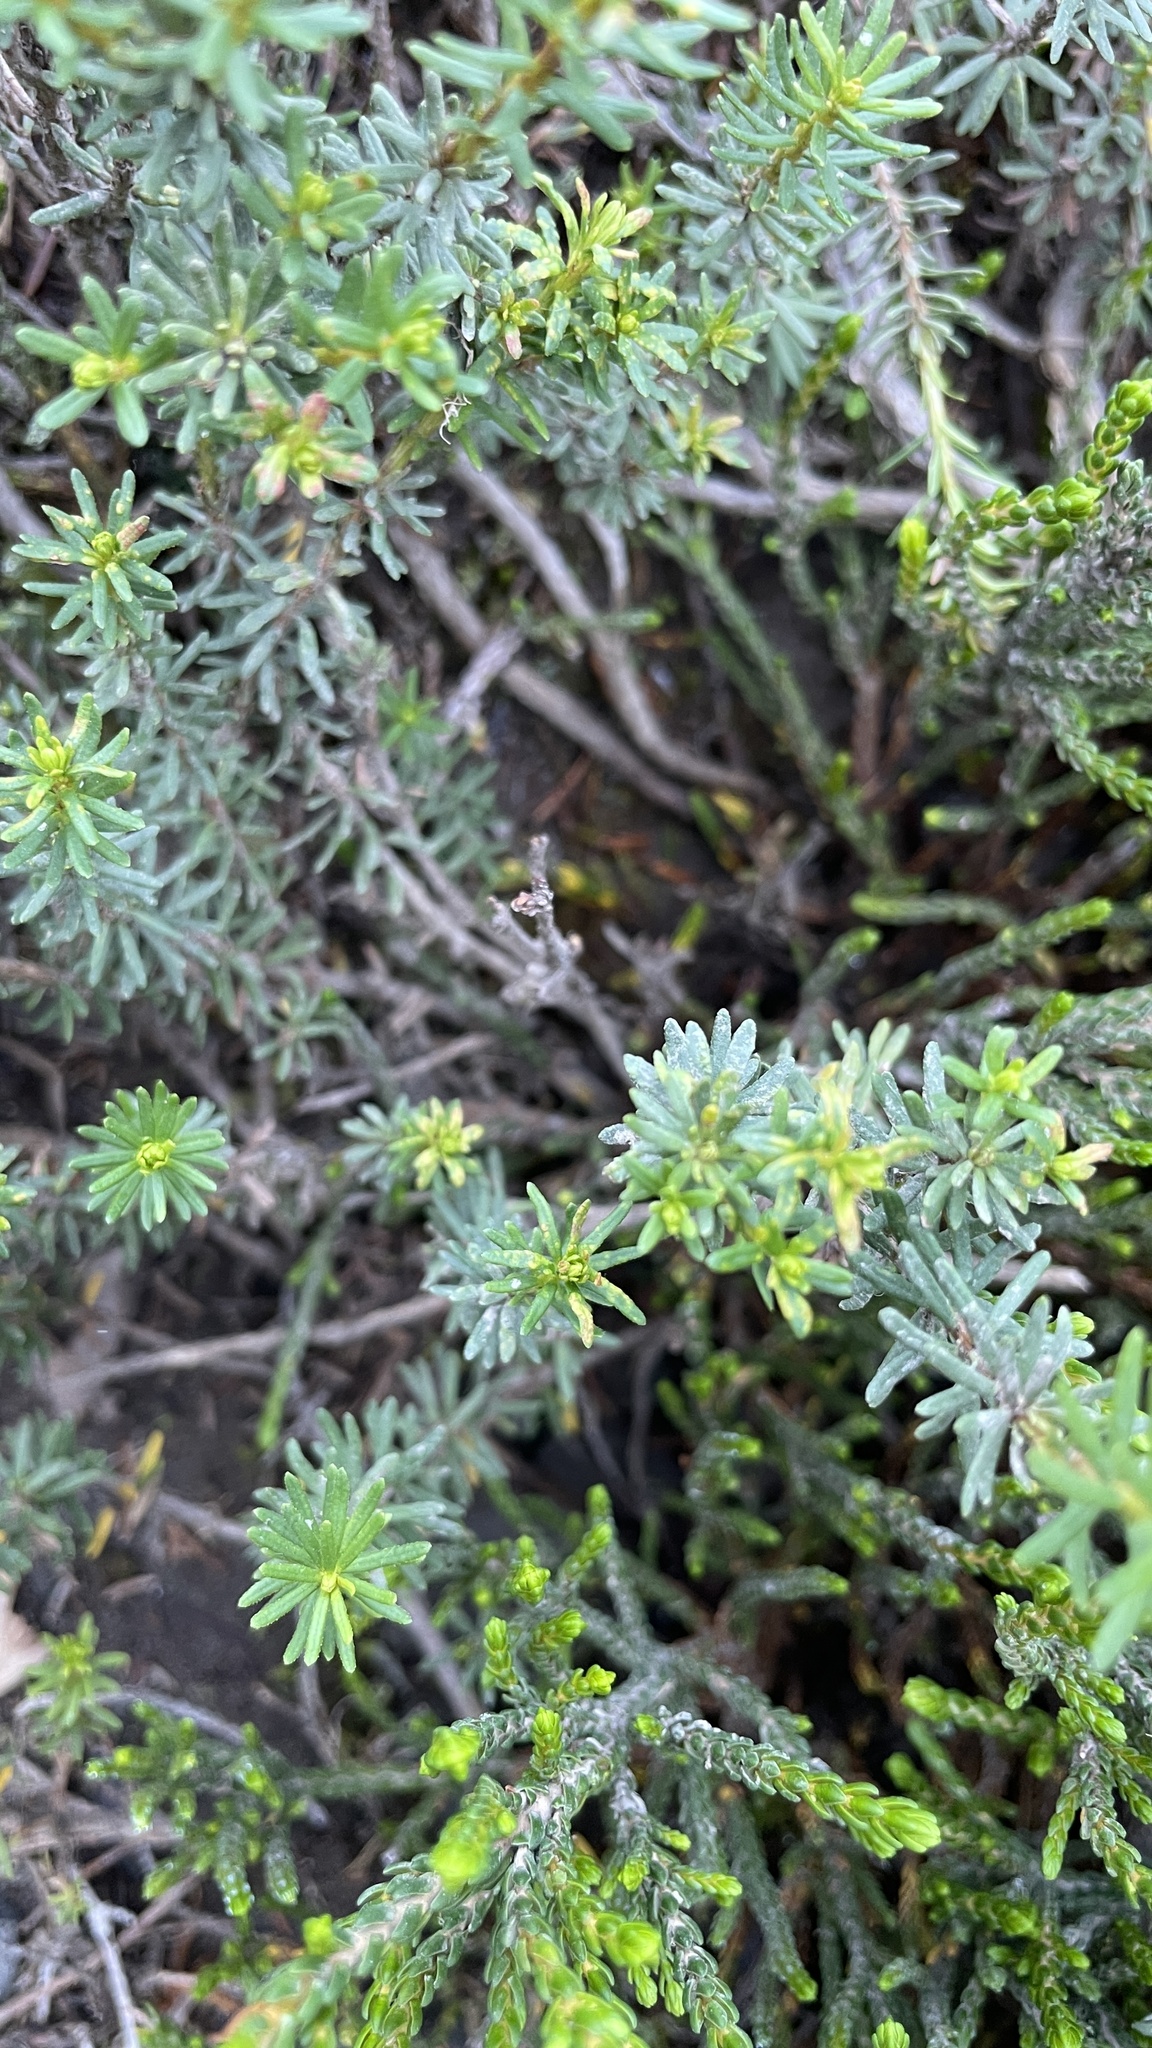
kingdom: Plantae
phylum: Tracheophyta
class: Magnoliopsida
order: Ericales
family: Ericaceae
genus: Phyllodoce
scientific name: Phyllodoce empetriformis
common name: Pink mountain heather
